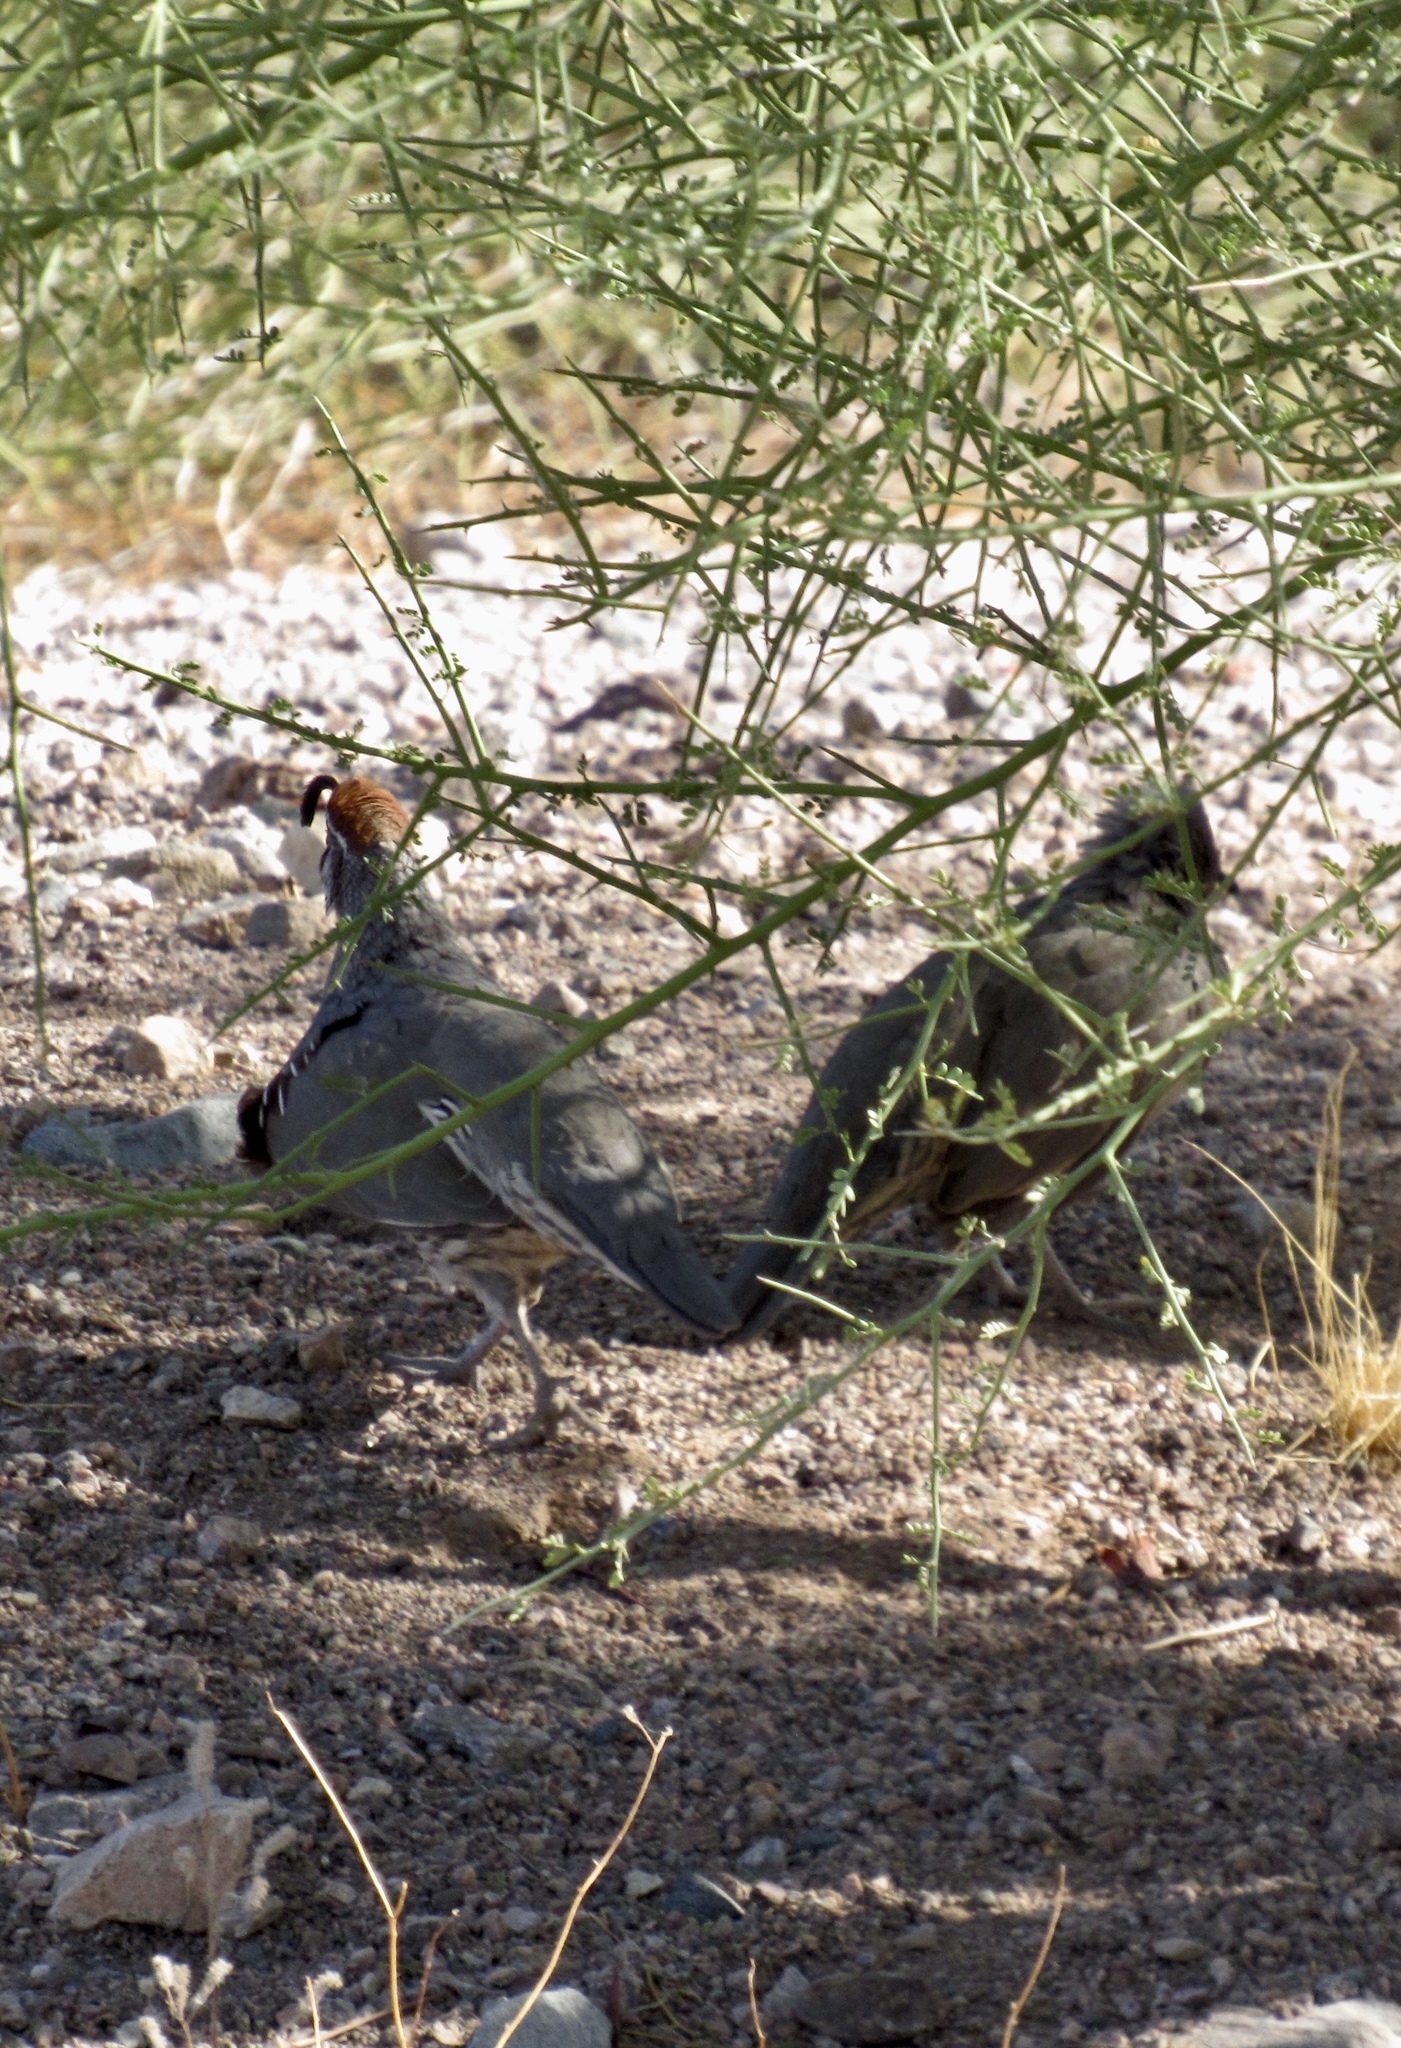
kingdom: Animalia
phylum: Chordata
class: Aves
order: Galliformes
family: Odontophoridae
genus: Callipepla
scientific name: Callipepla gambelii
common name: Gambel's quail
